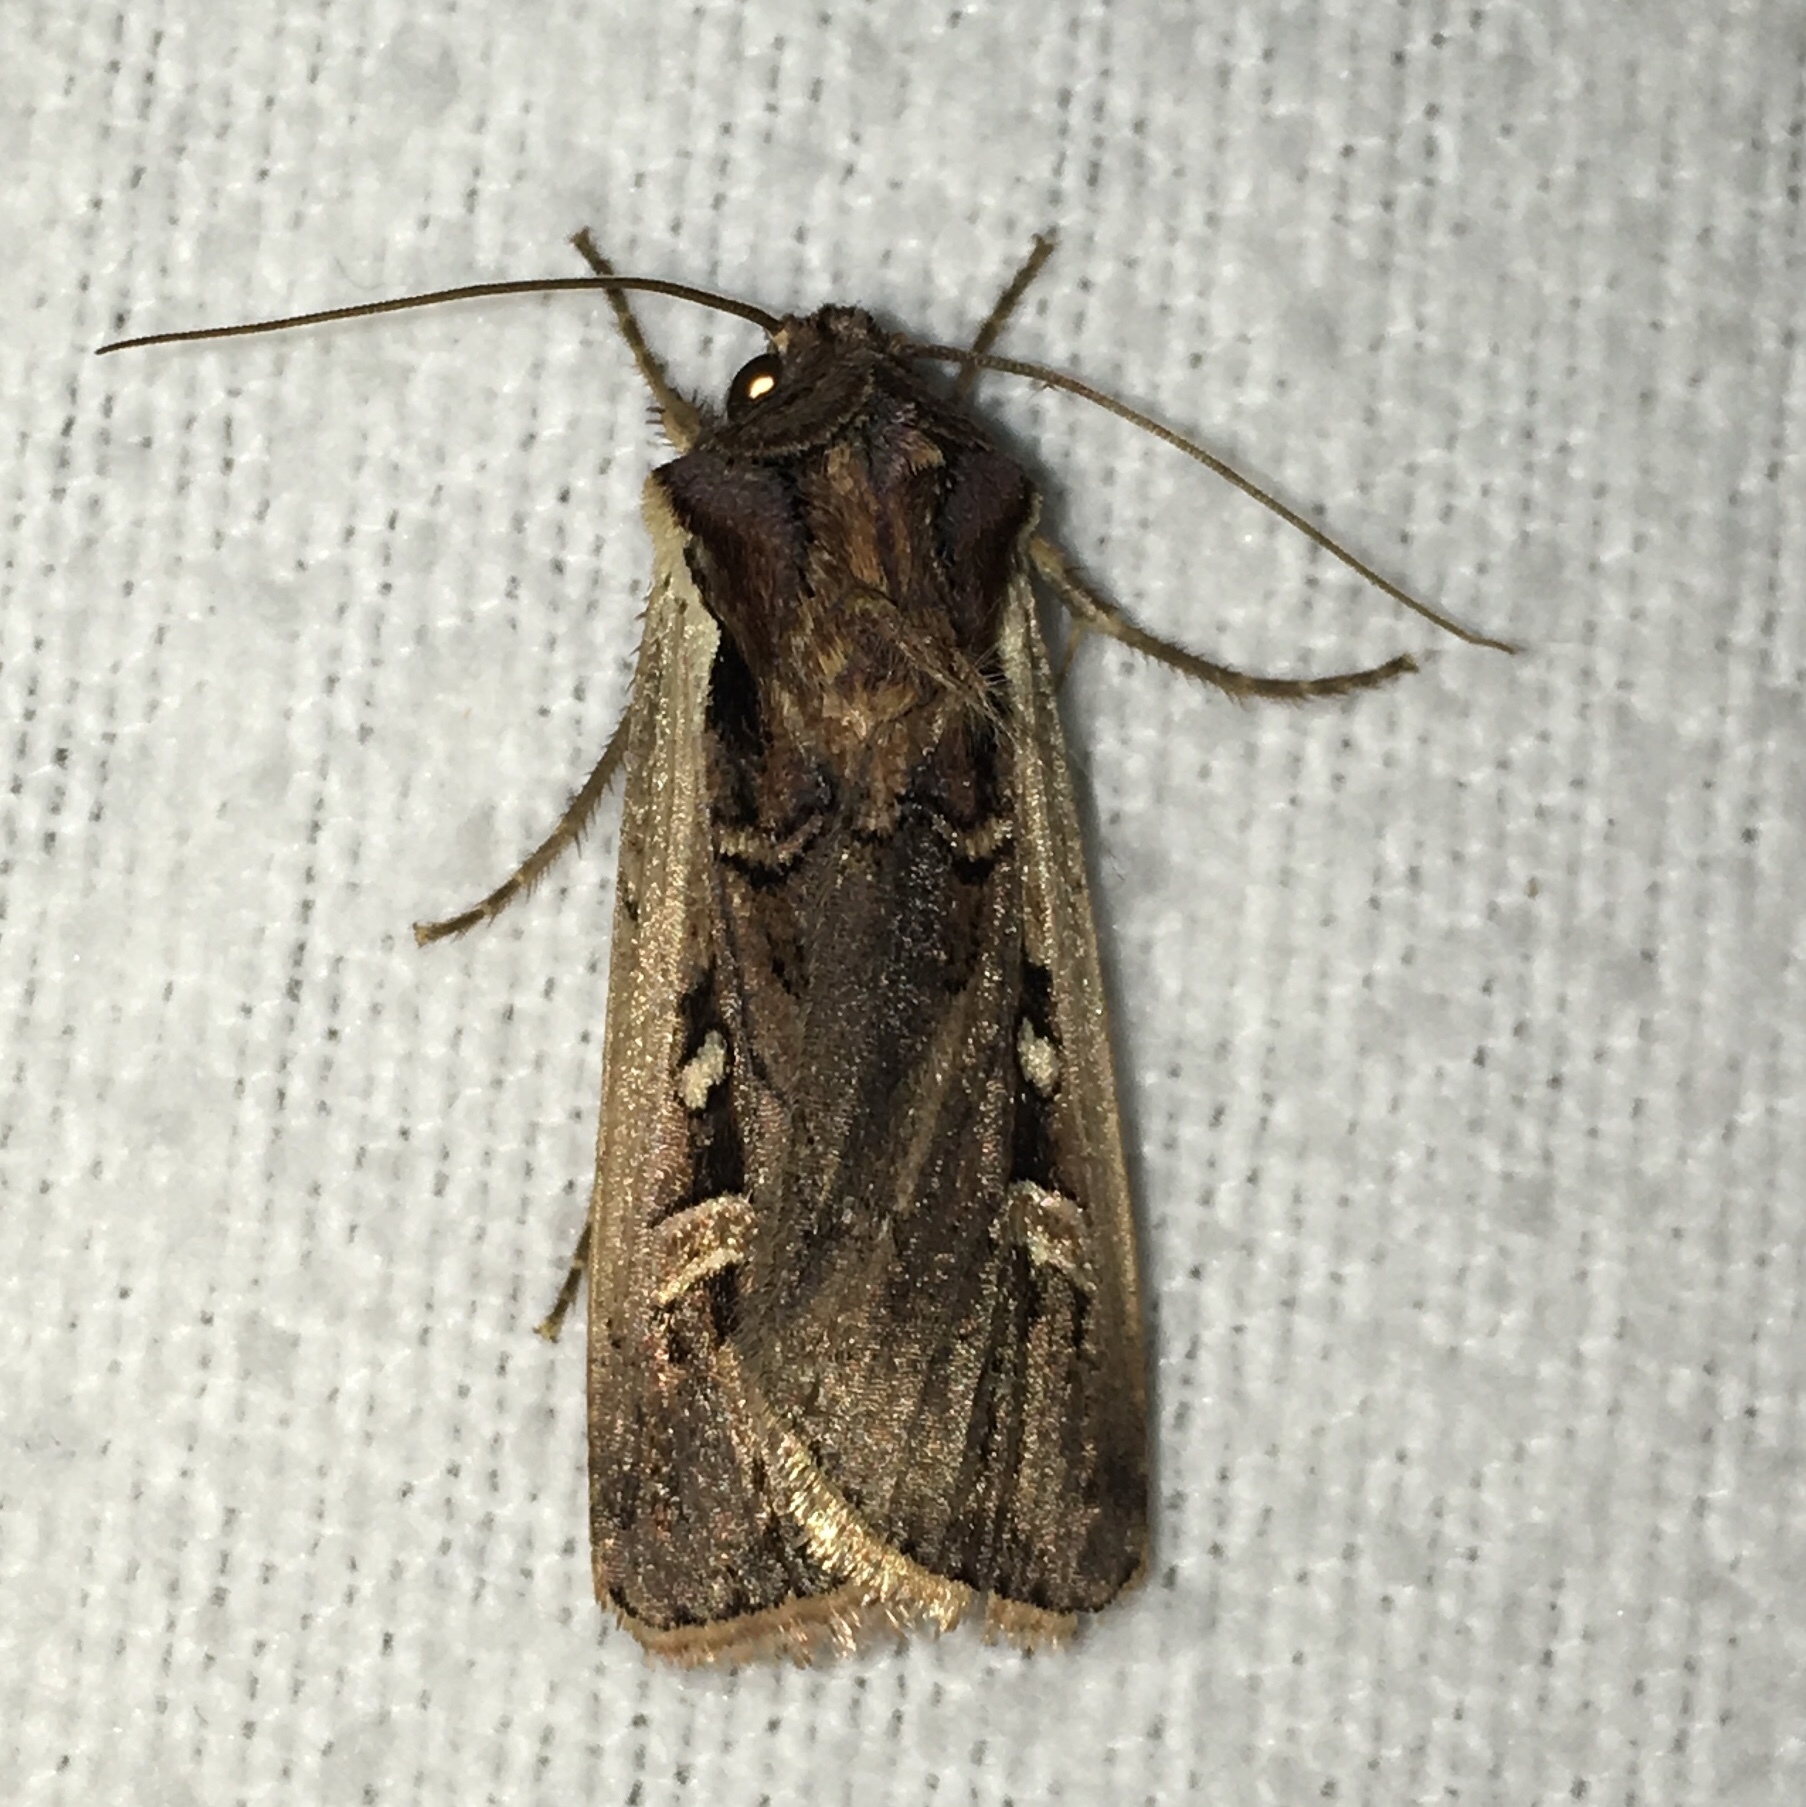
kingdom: Animalia
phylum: Arthropoda
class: Insecta
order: Lepidoptera
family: Noctuidae
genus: Striacosta
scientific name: Striacosta albicosta
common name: Western bean cutworm moth
